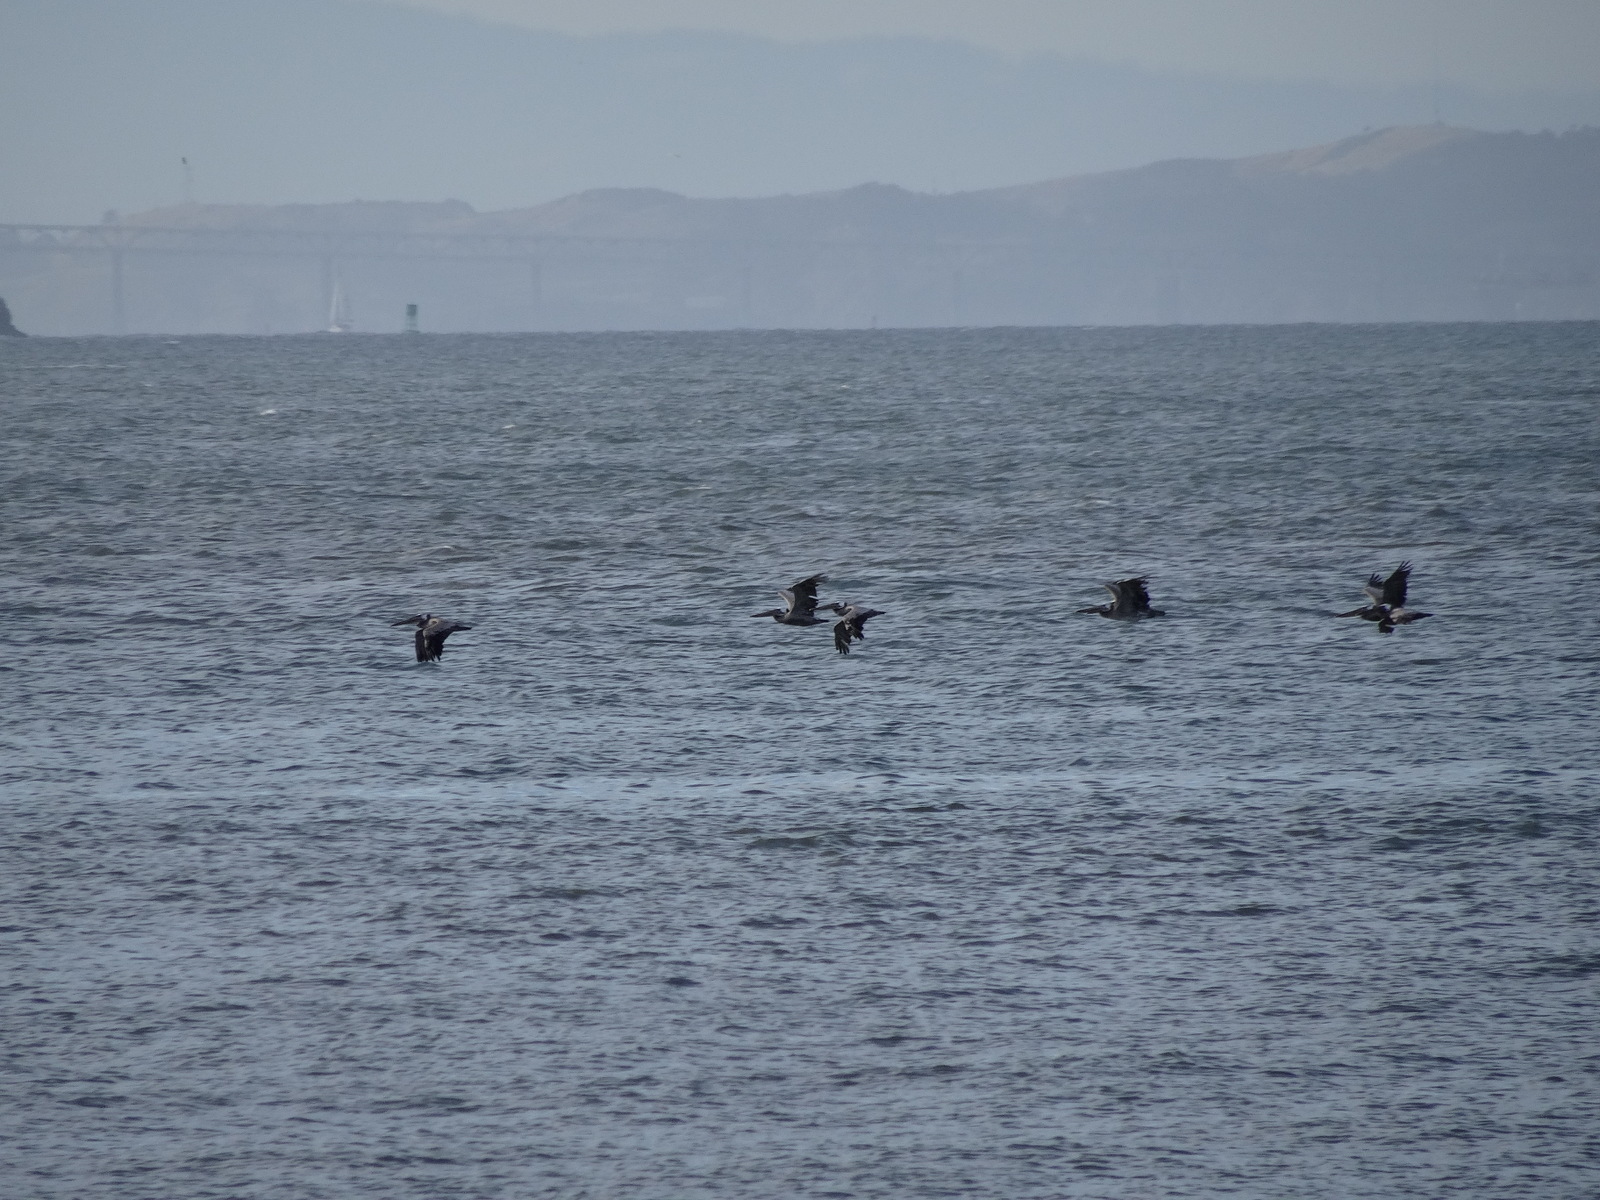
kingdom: Animalia
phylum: Chordata
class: Aves
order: Pelecaniformes
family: Pelecanidae
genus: Pelecanus
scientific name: Pelecanus occidentalis
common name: Brown pelican
